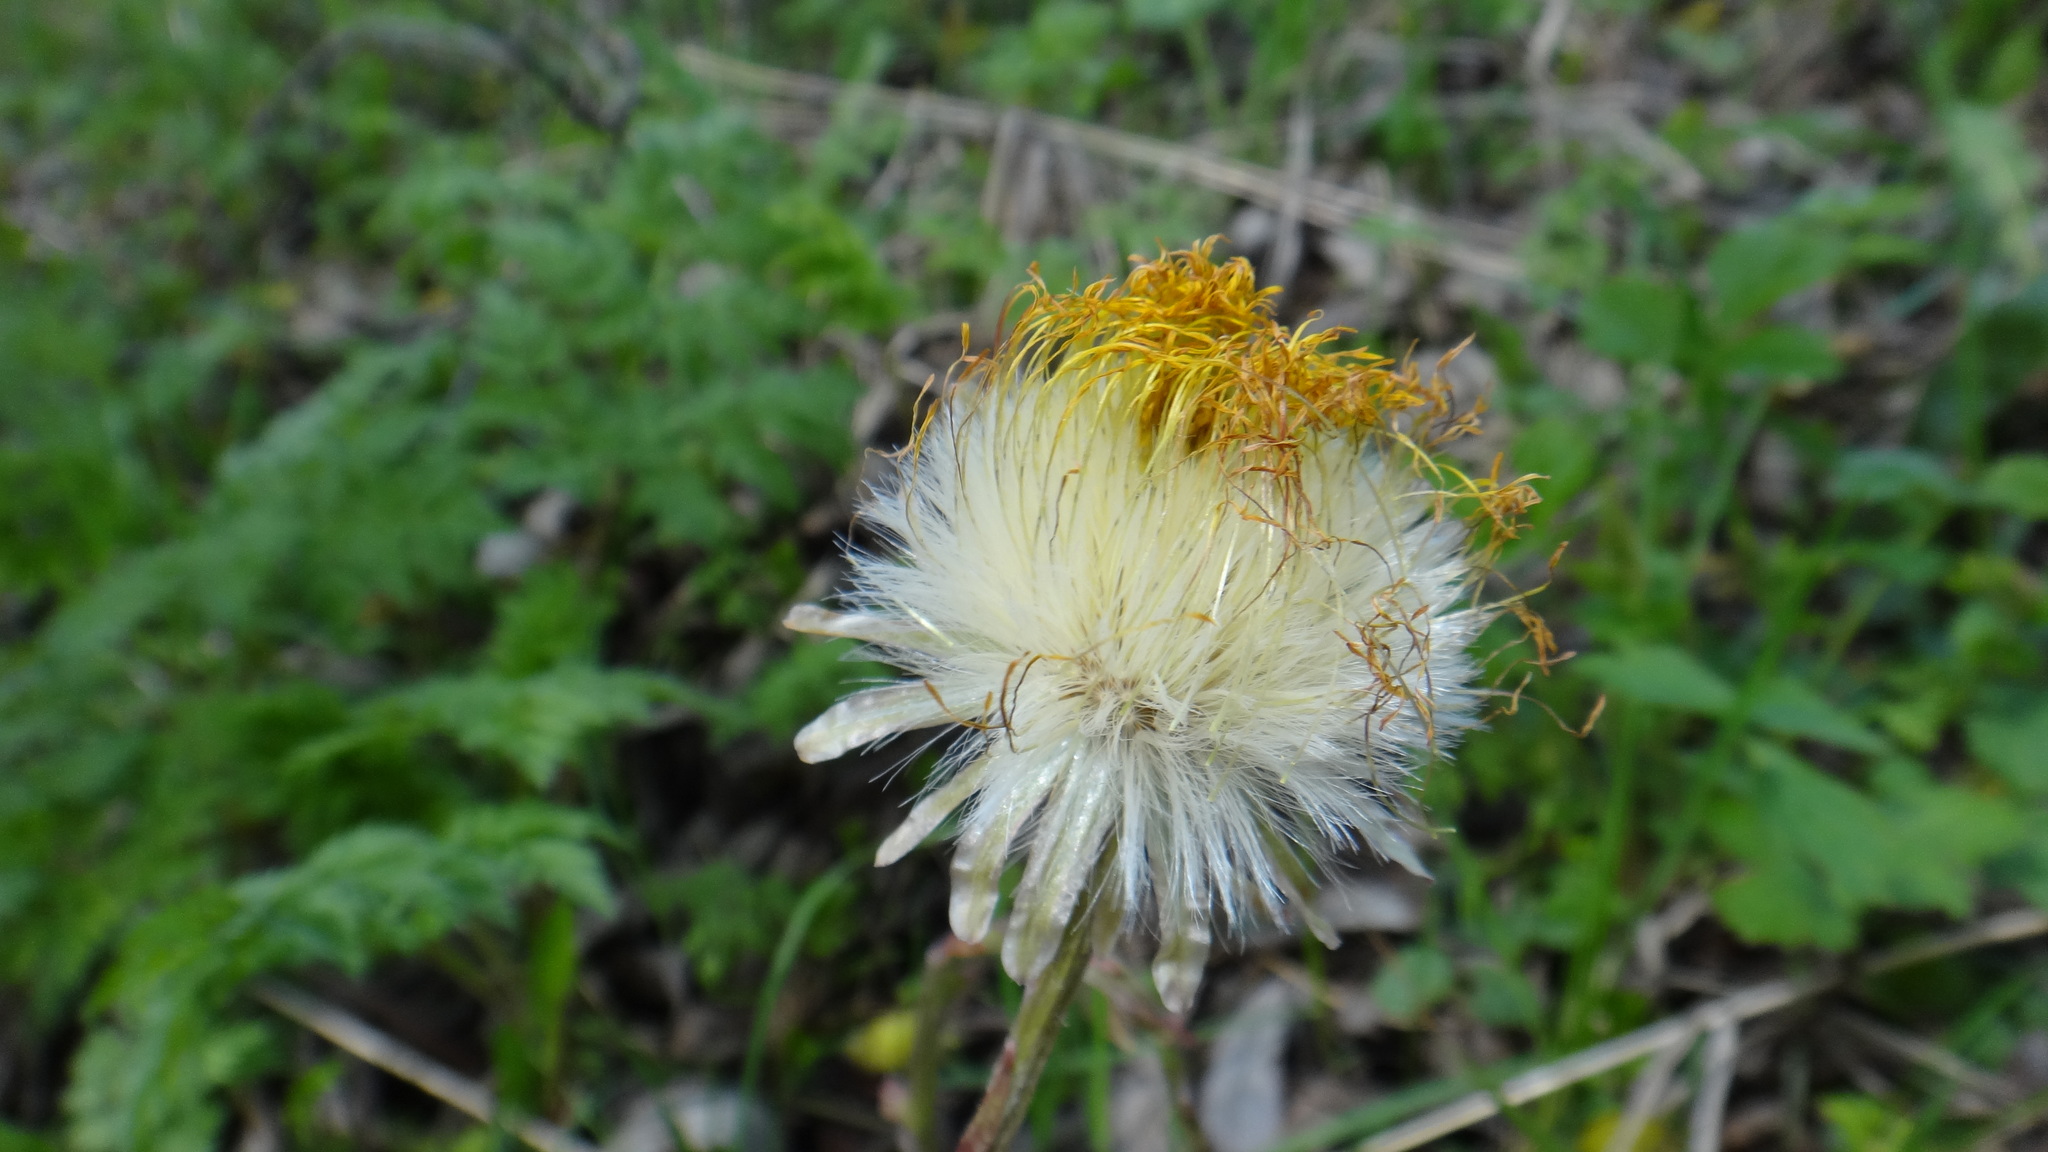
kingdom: Plantae
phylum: Tracheophyta
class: Magnoliopsida
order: Asterales
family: Asteraceae
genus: Tussilago
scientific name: Tussilago farfara
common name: Coltsfoot
